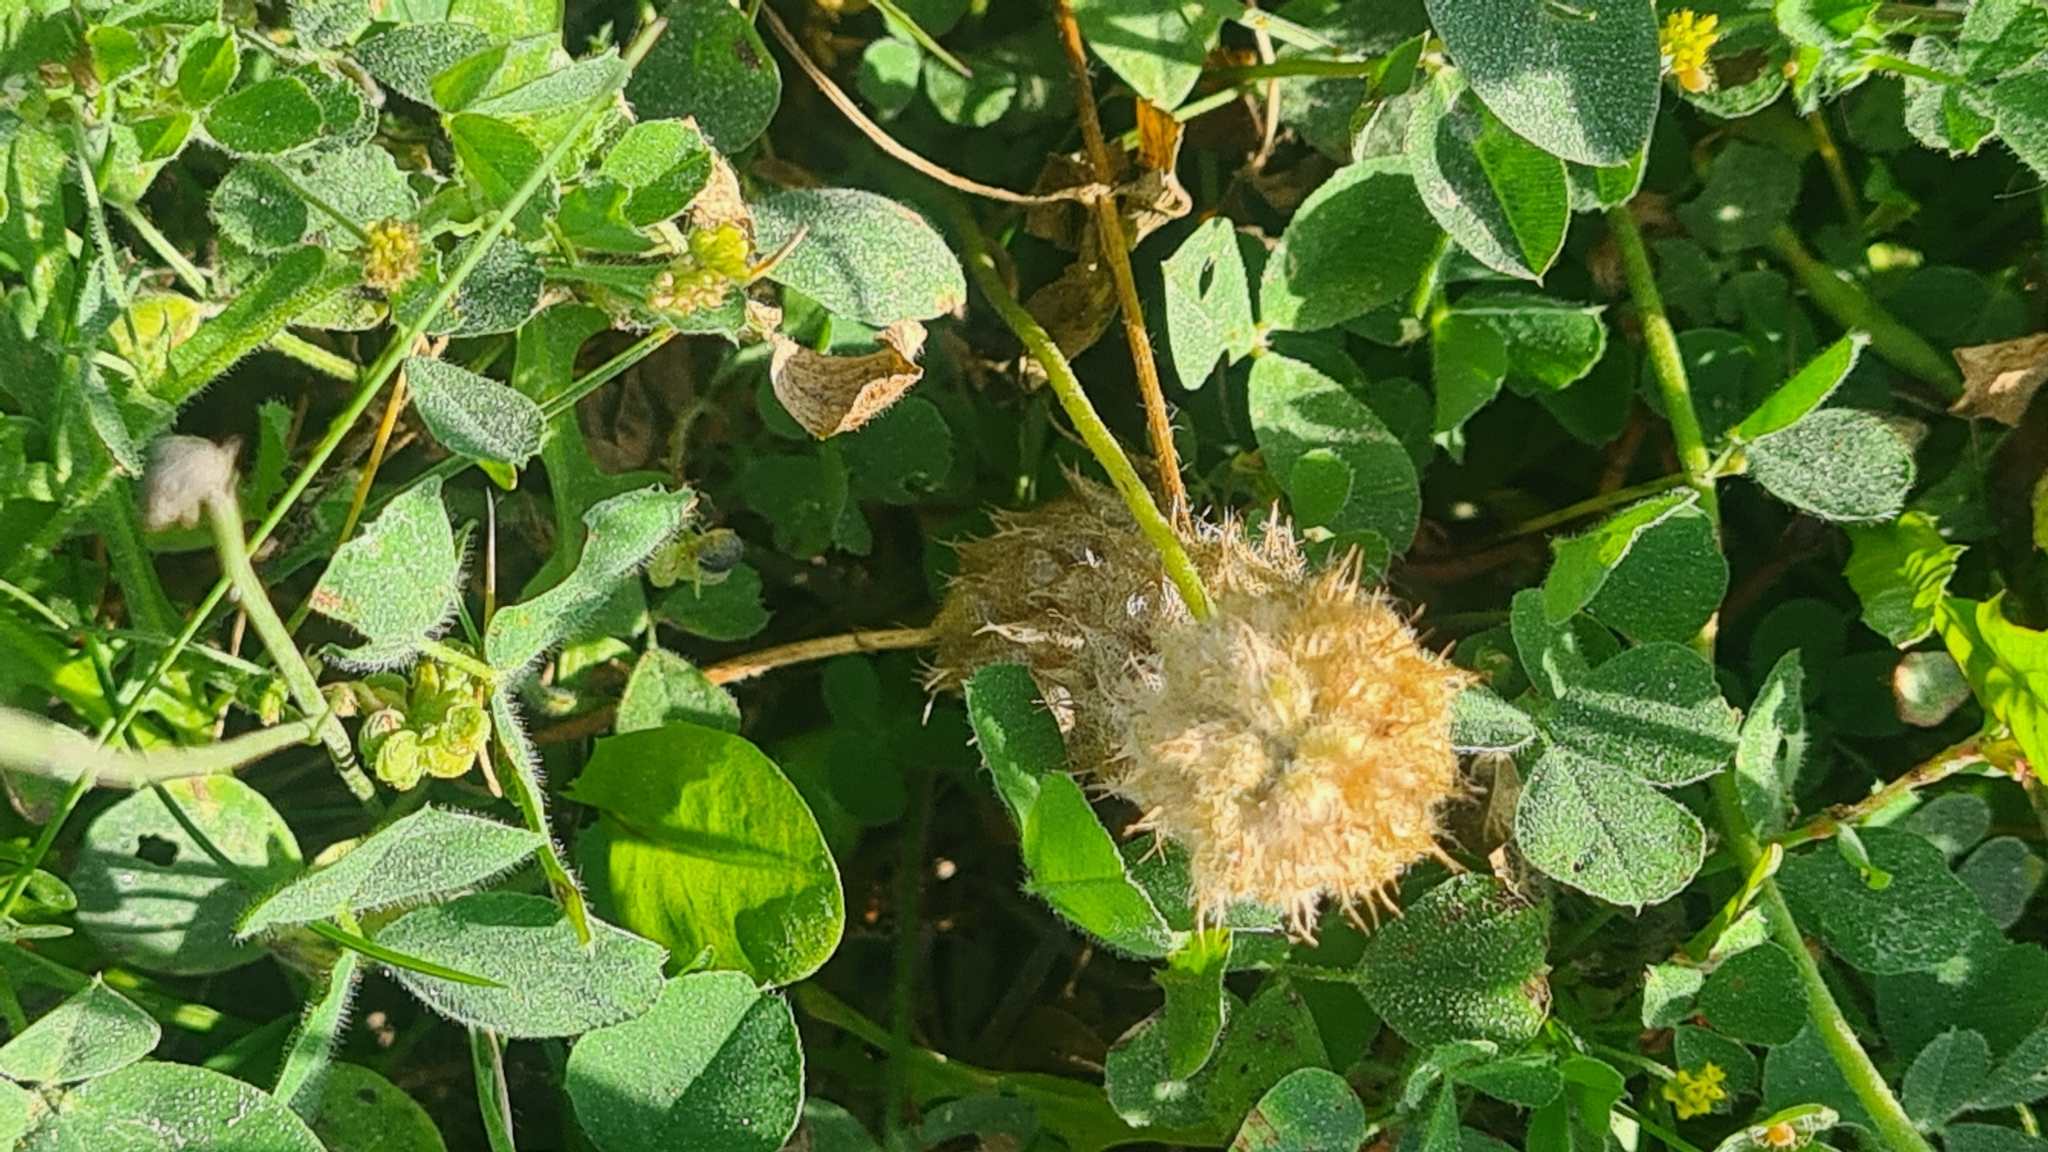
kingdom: Plantae
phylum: Tracheophyta
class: Magnoliopsida
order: Fabales
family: Fabaceae
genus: Trifolium
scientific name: Trifolium fragiferum
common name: Strawberry clover
